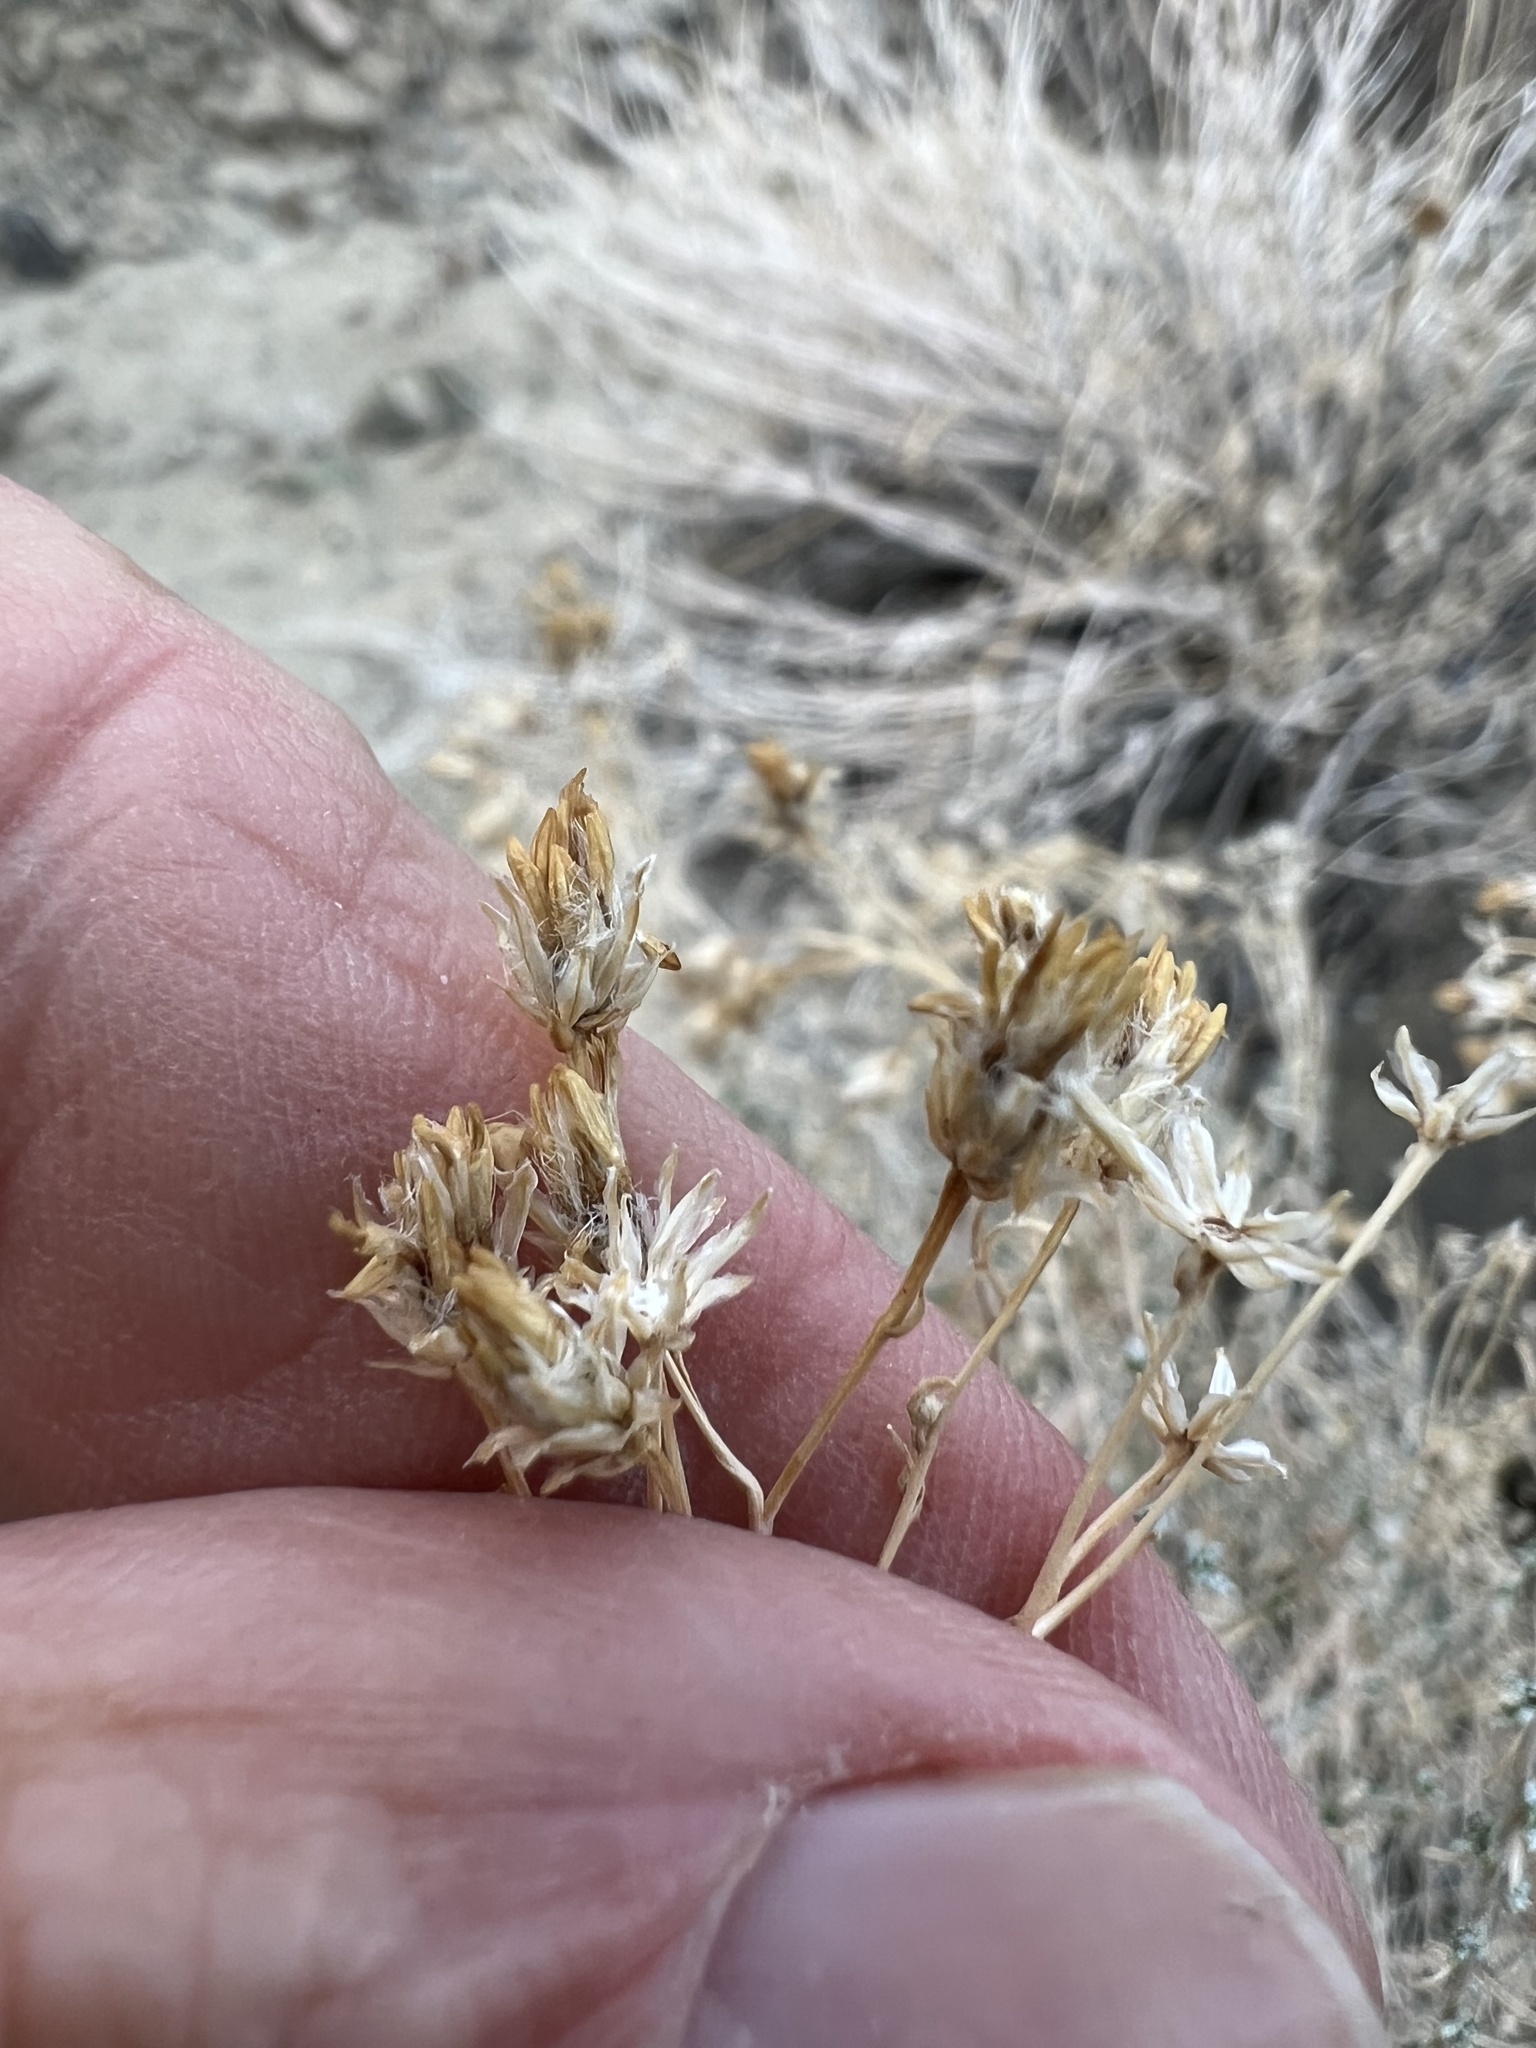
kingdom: Plantae
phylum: Tracheophyta
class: Magnoliopsida
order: Asterales
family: Asteraceae
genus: Ericameria
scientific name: Ericameria cooperi
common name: Cooper's goldenbush
